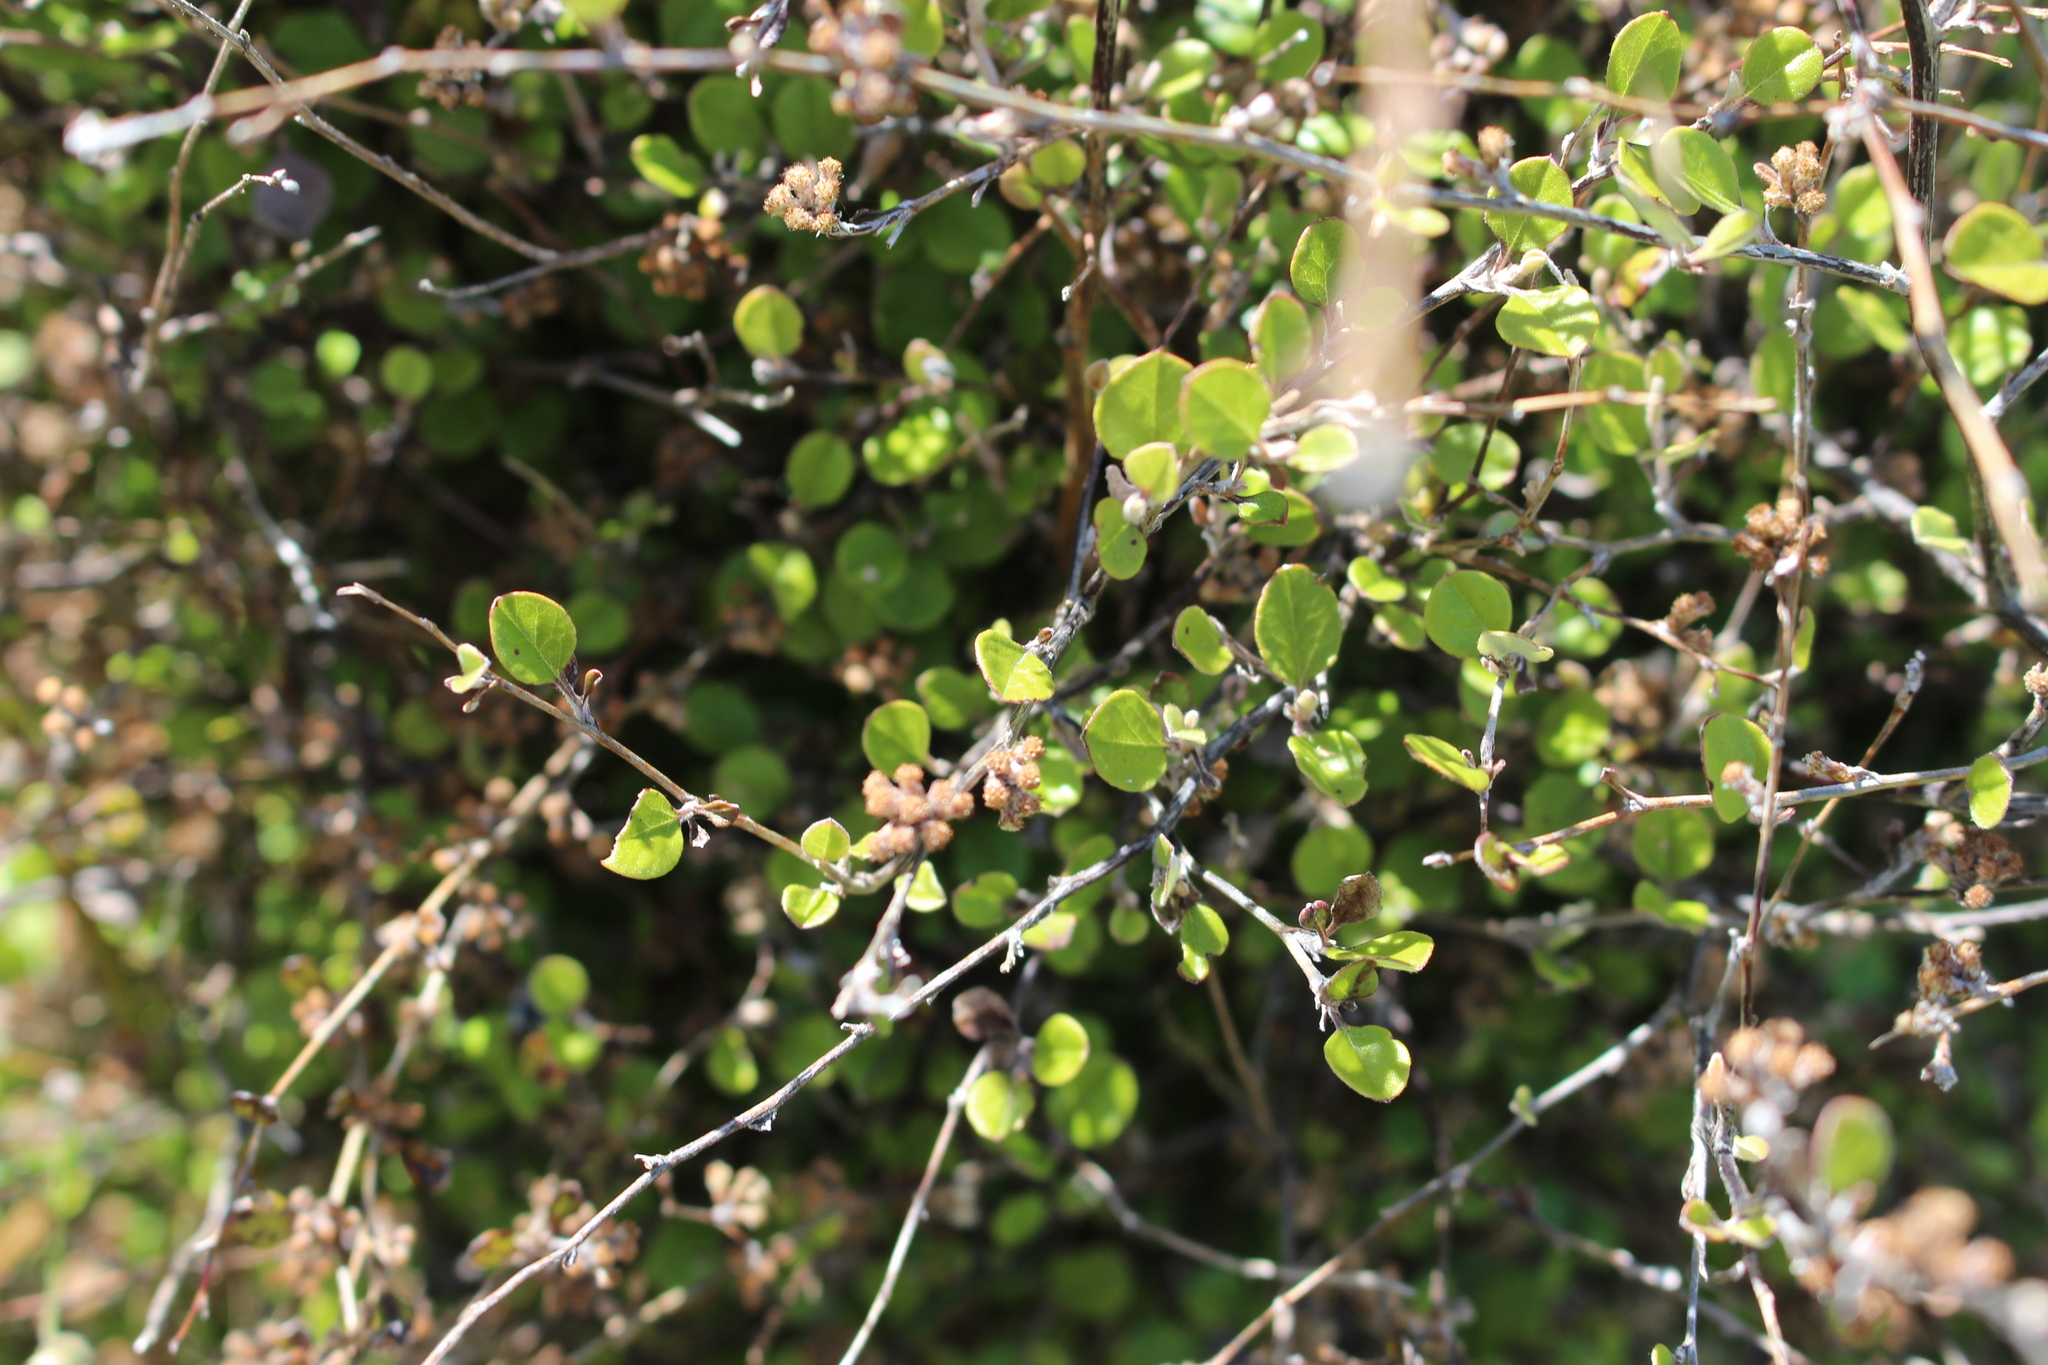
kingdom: Plantae
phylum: Tracheophyta
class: Magnoliopsida
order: Asterales
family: Asteraceae
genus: Ozothamnus
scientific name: Ozothamnus glomeratus
